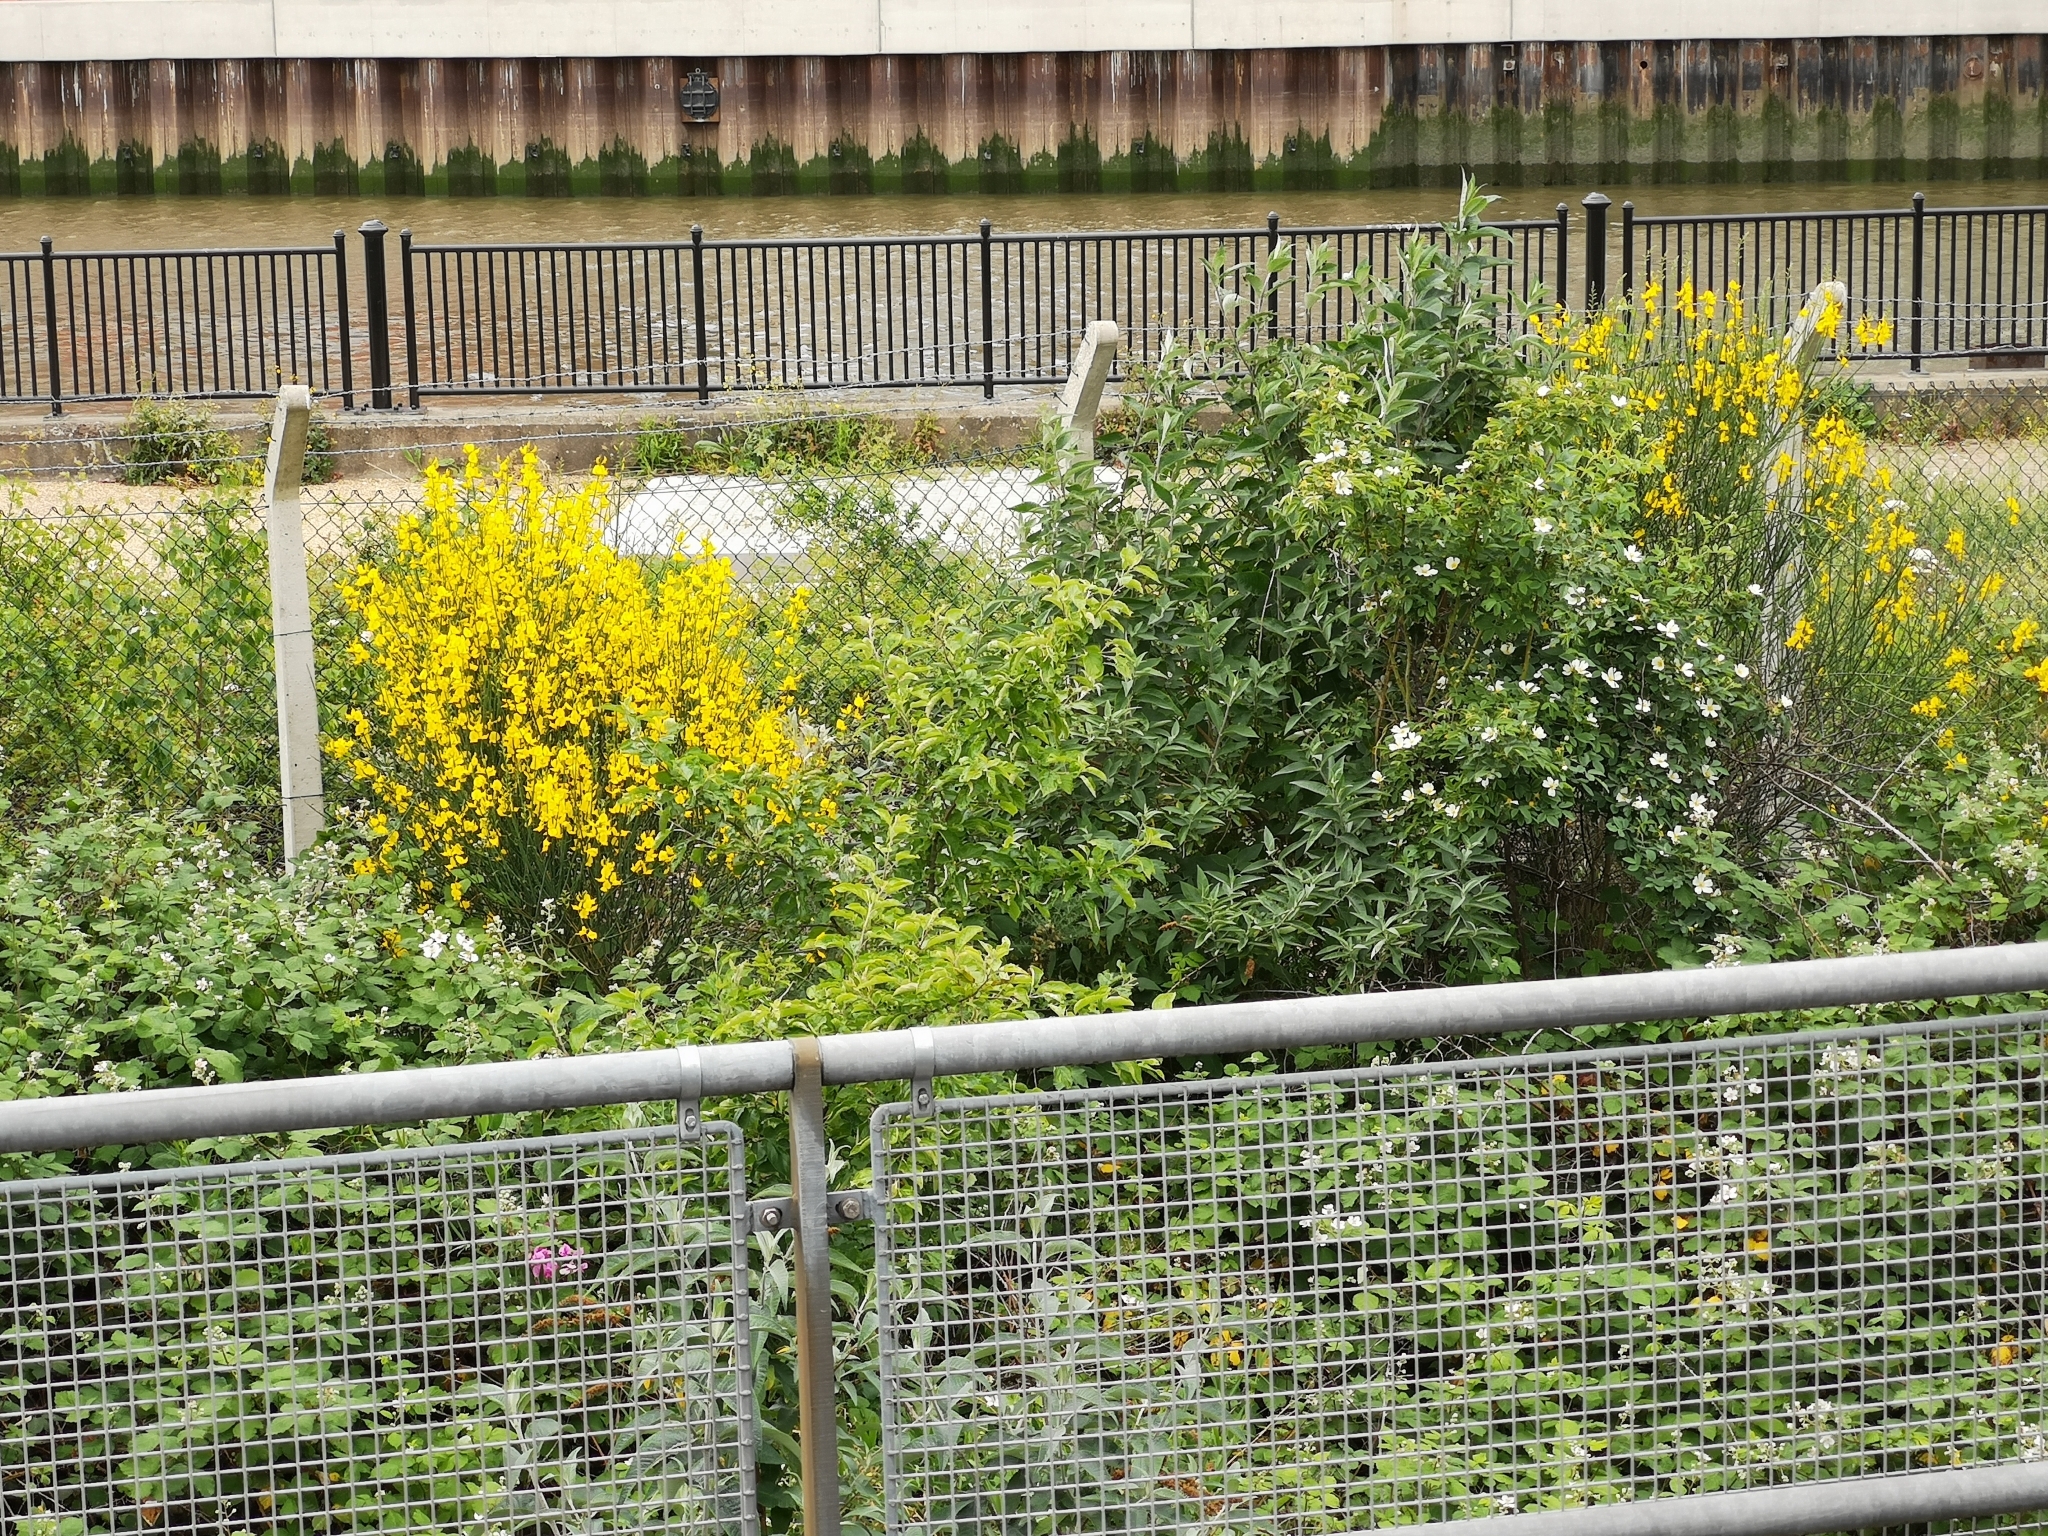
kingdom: Plantae
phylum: Tracheophyta
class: Magnoliopsida
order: Fabales
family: Fabaceae
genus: Spartium
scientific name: Spartium junceum
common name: Spanish broom
